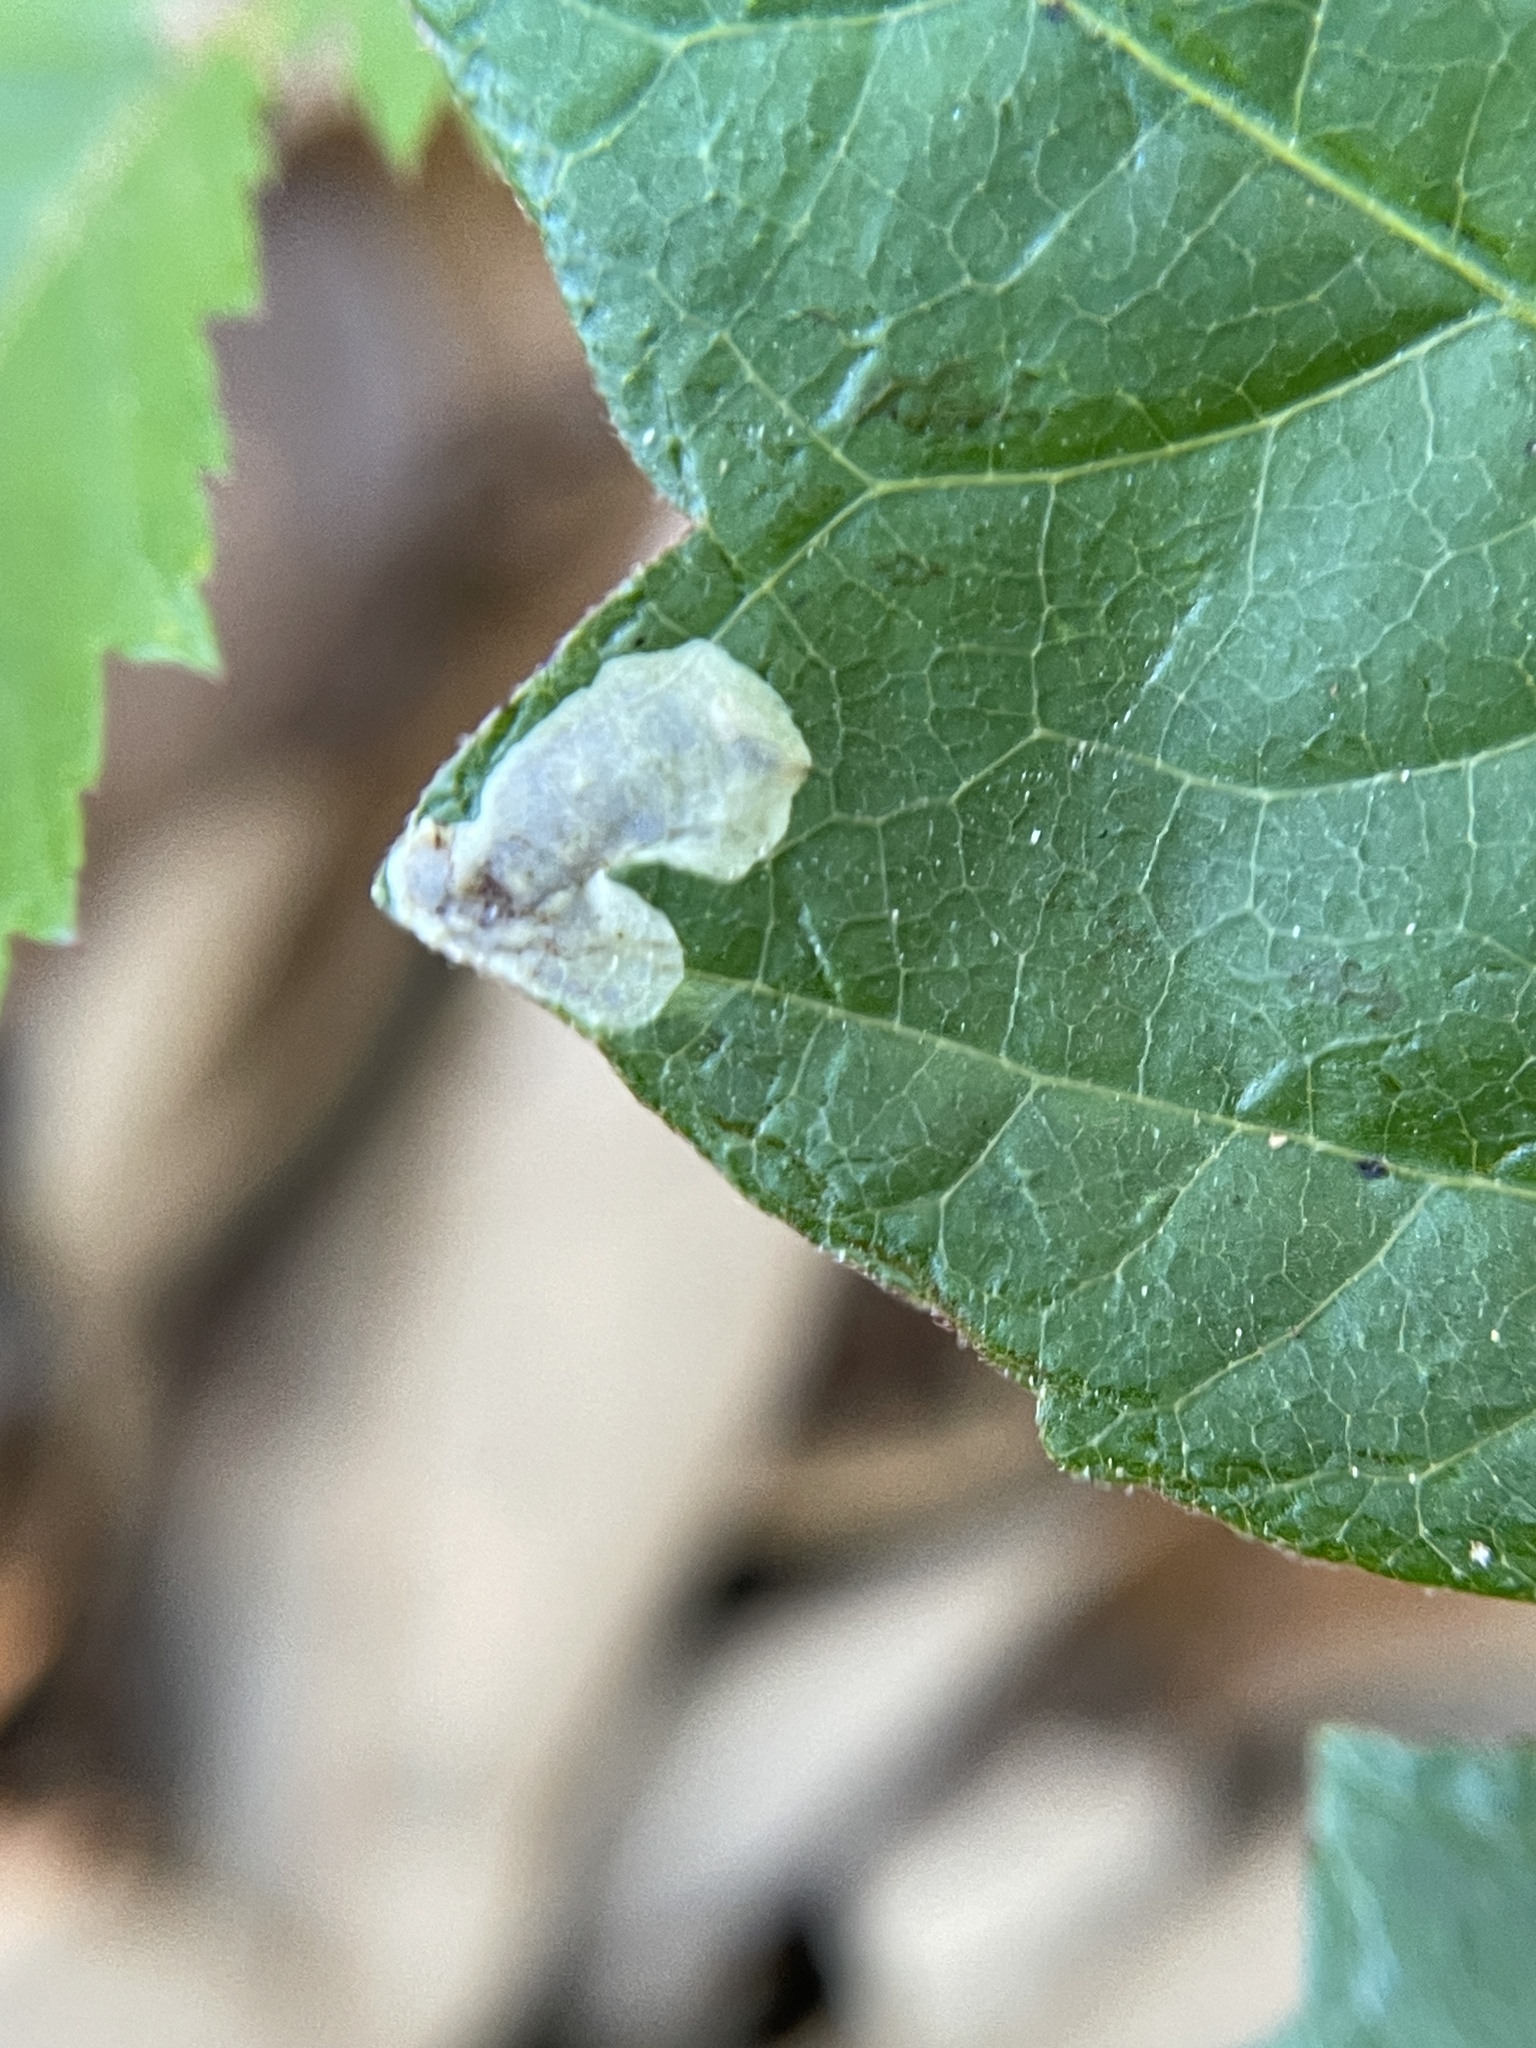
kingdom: Animalia
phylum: Arthropoda
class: Insecta
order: Lepidoptera
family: Gracillariidae
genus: Cameraria
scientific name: Cameraria guttifinitella
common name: Poison ivy leaf-miner moth
